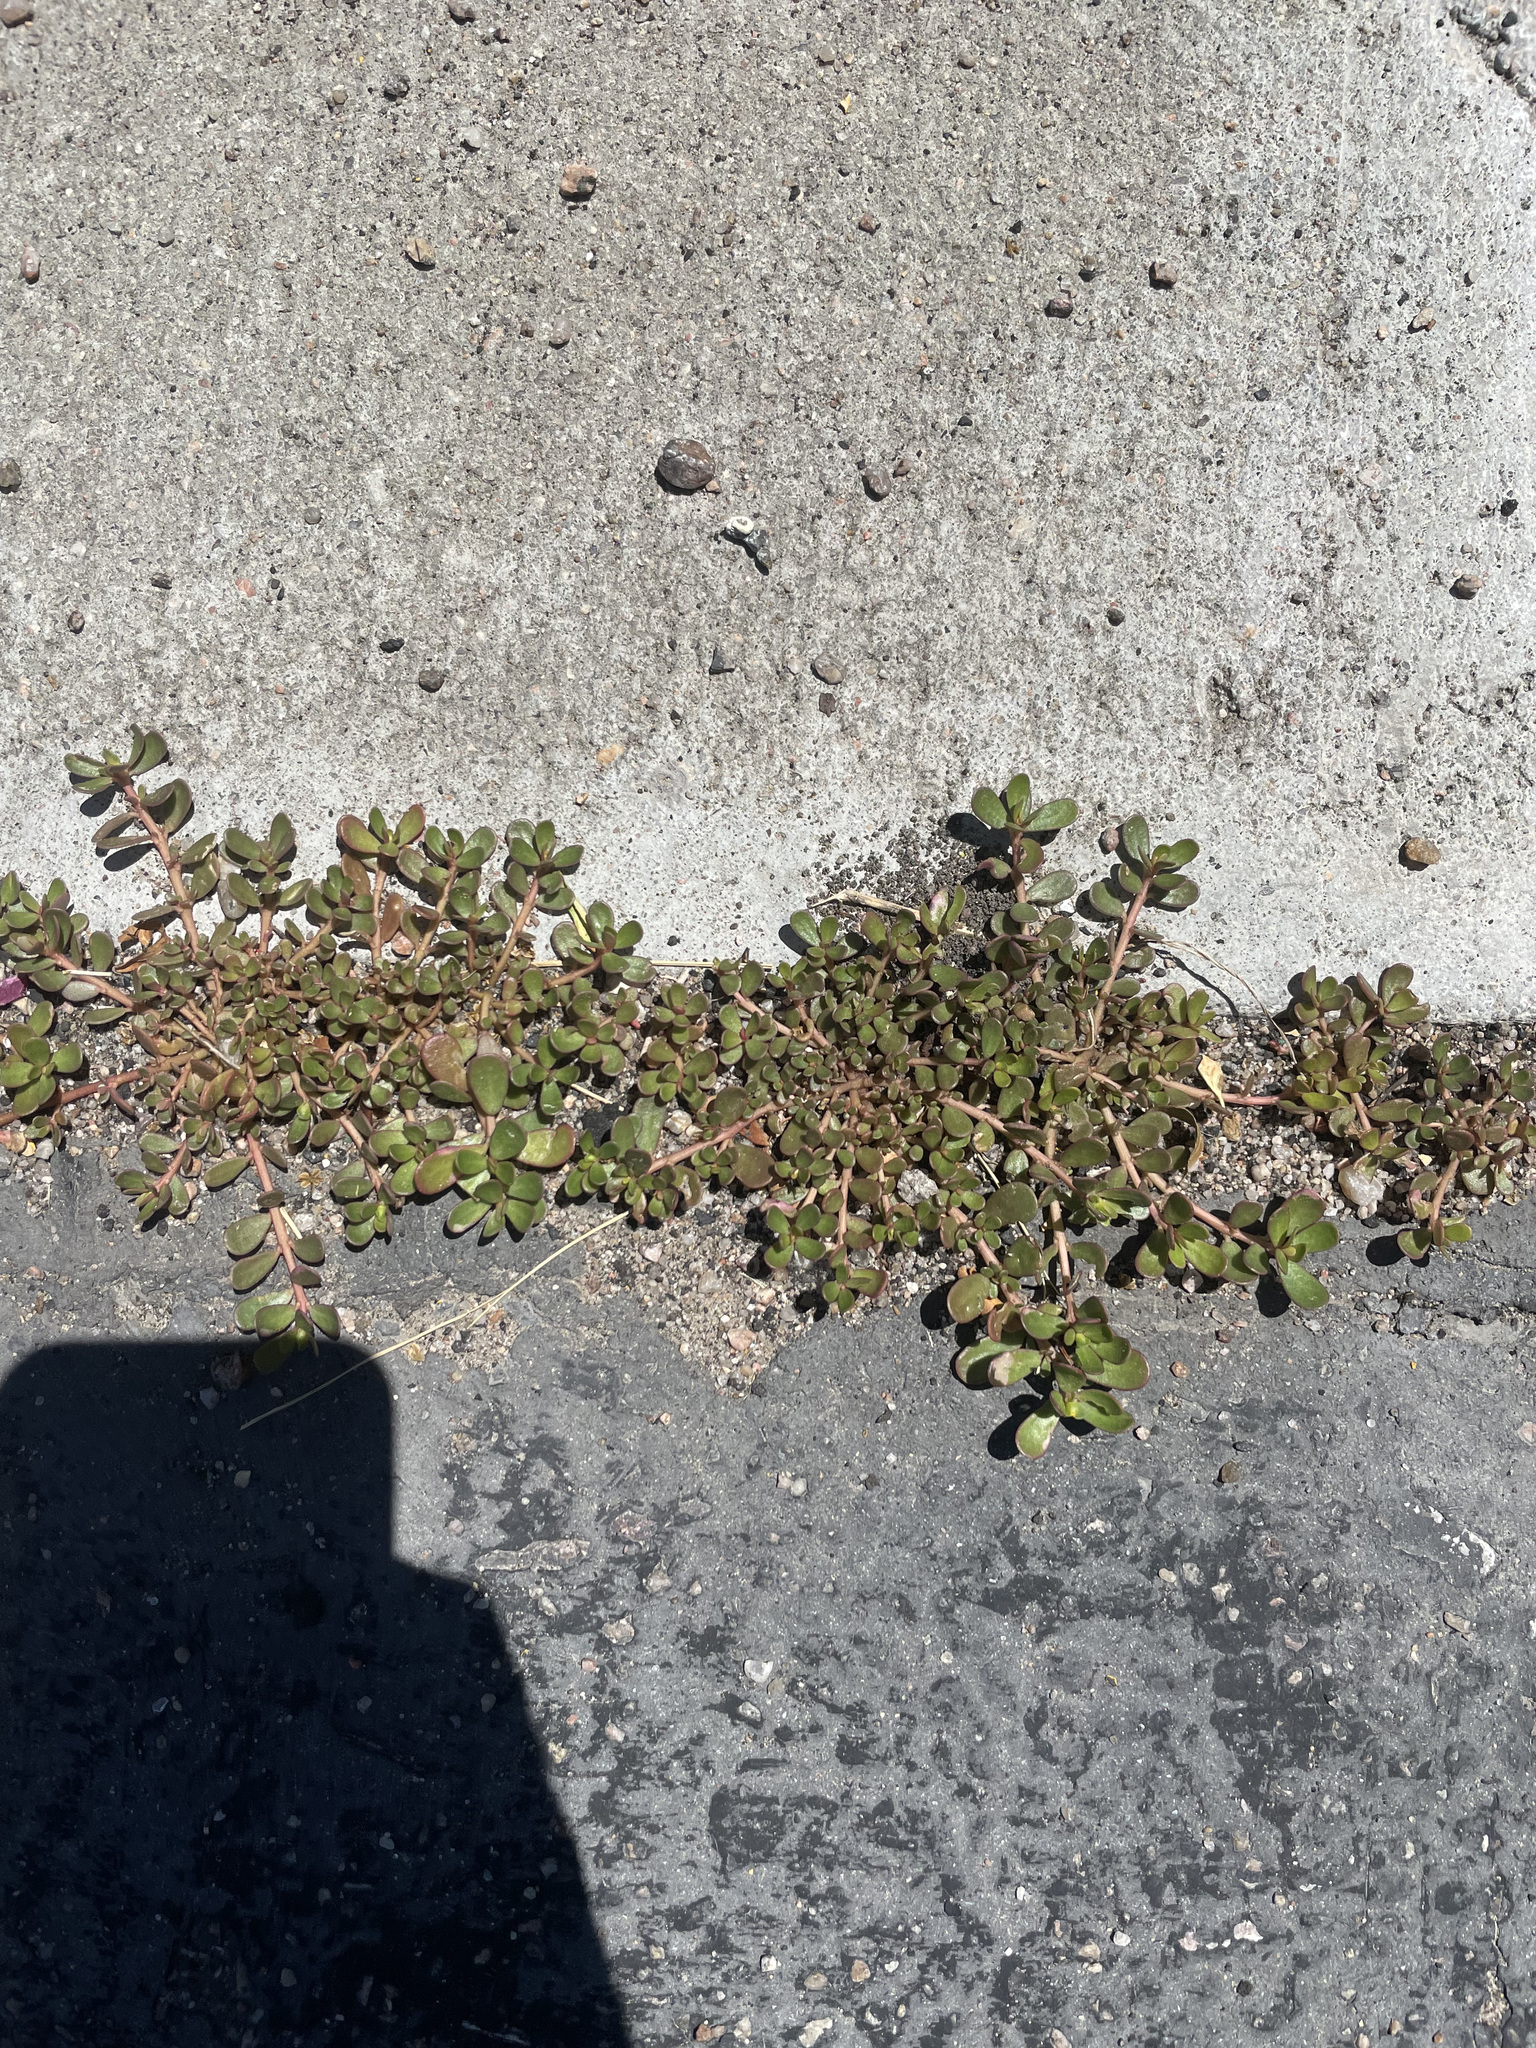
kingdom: Plantae
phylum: Tracheophyta
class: Magnoliopsida
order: Caryophyllales
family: Portulacaceae
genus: Portulaca
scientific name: Portulaca oleracea
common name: Common purslane
